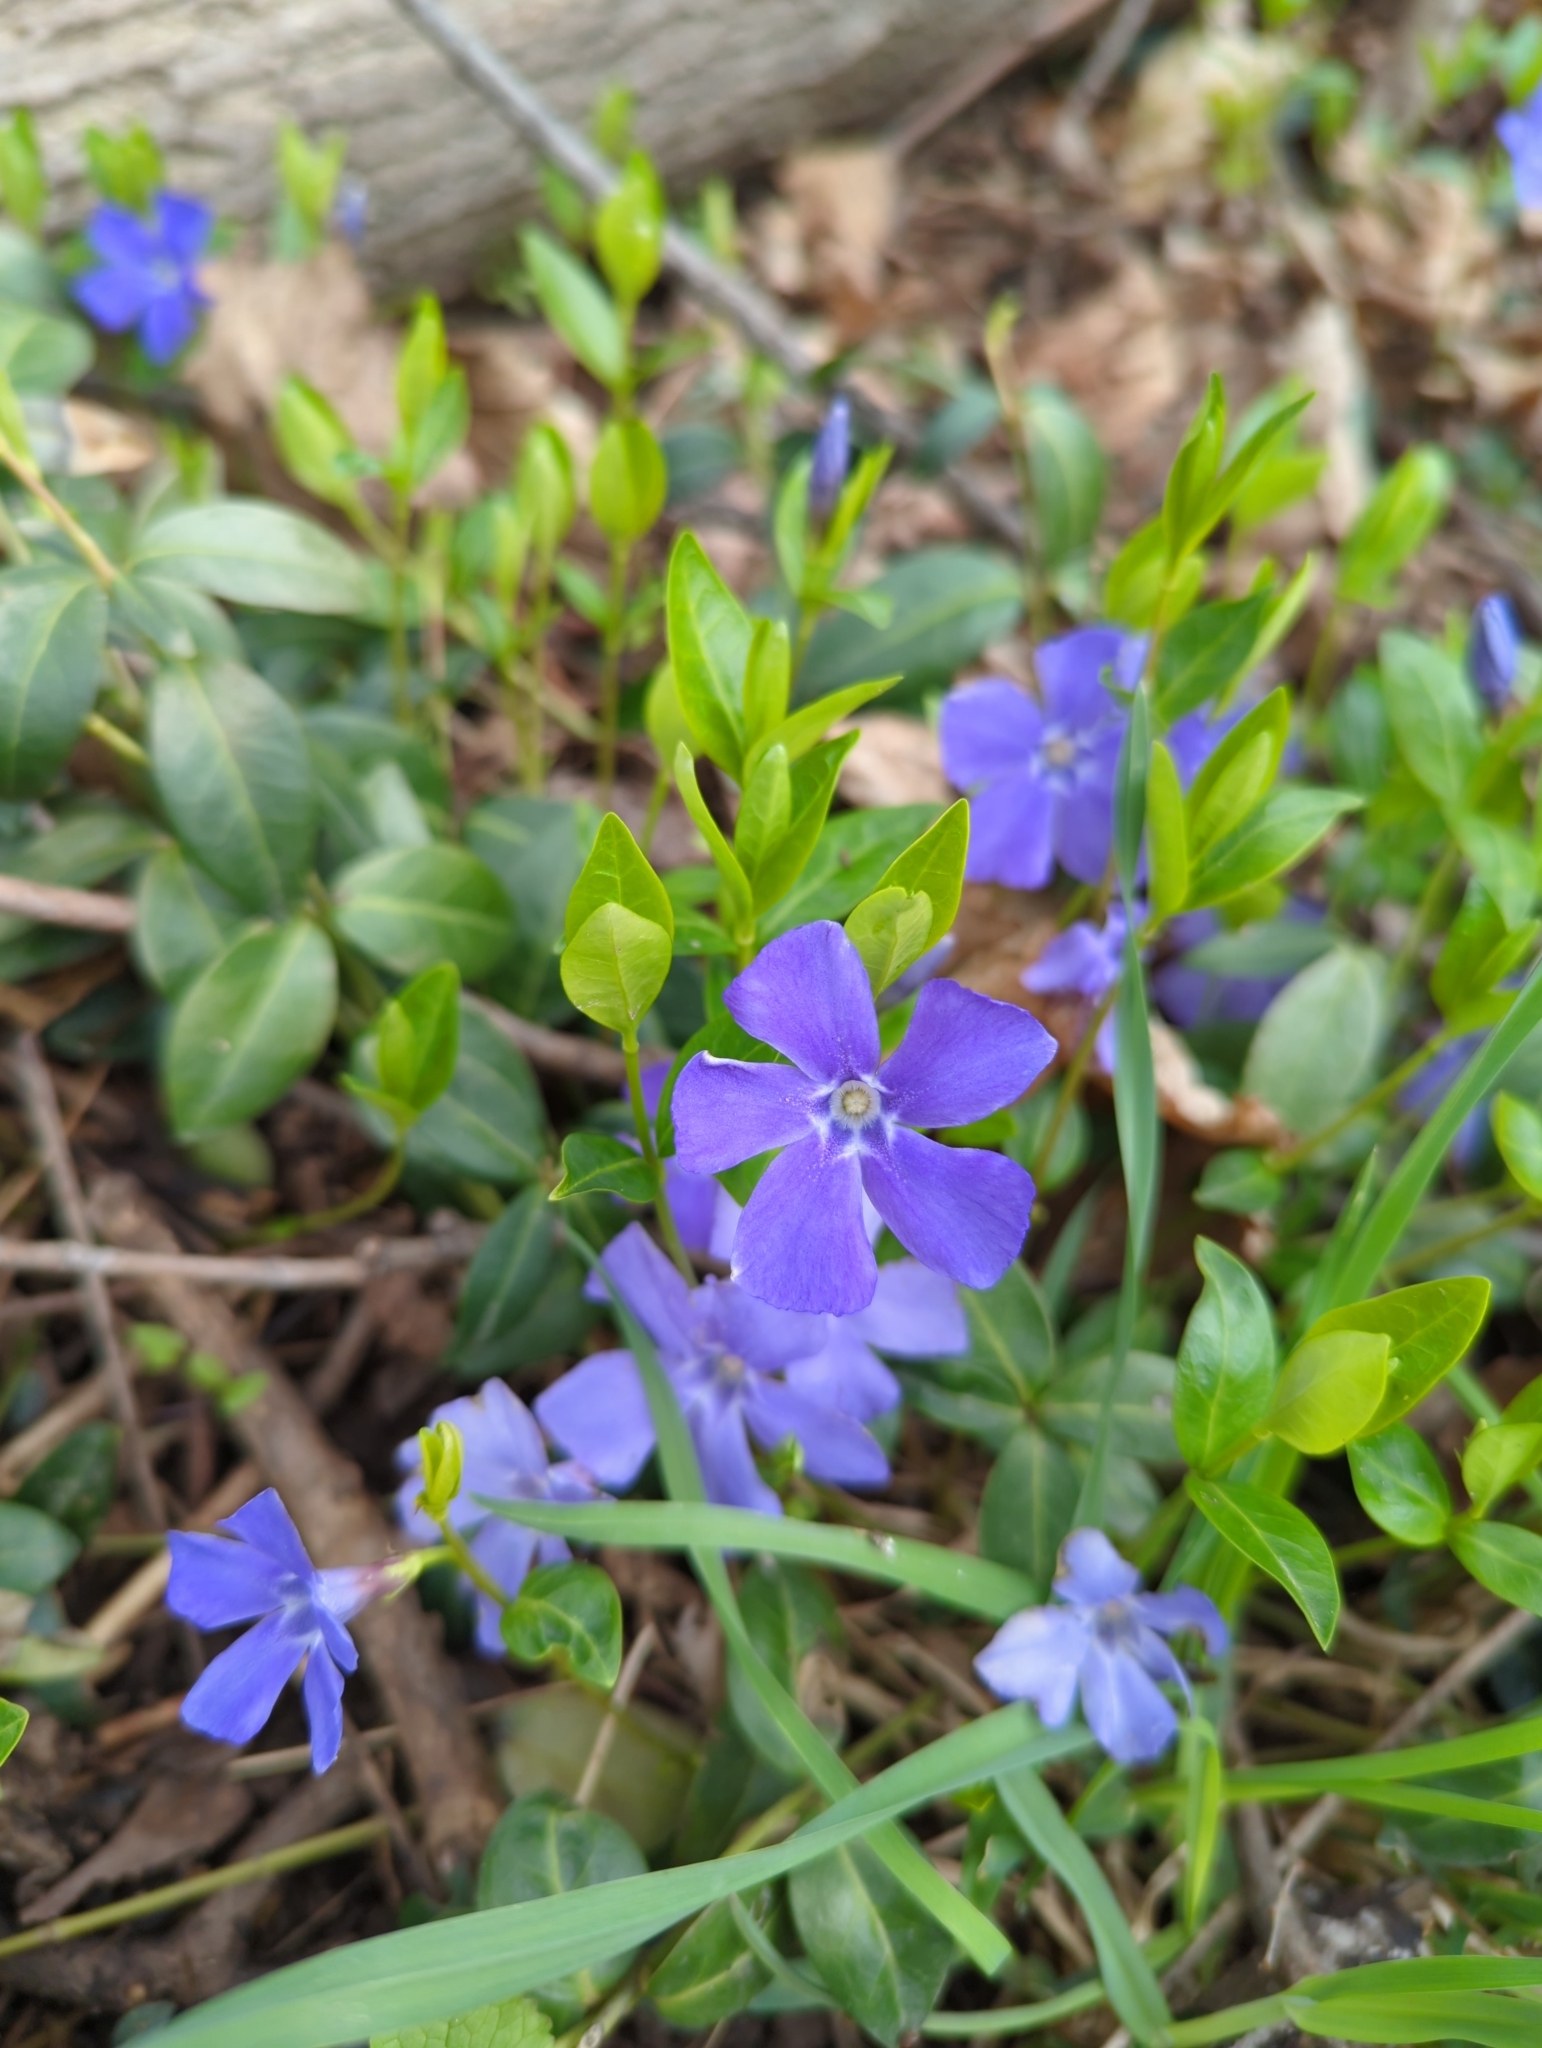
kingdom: Plantae
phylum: Tracheophyta
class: Magnoliopsida
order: Gentianales
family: Apocynaceae
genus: Vinca
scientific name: Vinca minor
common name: Lesser periwinkle
